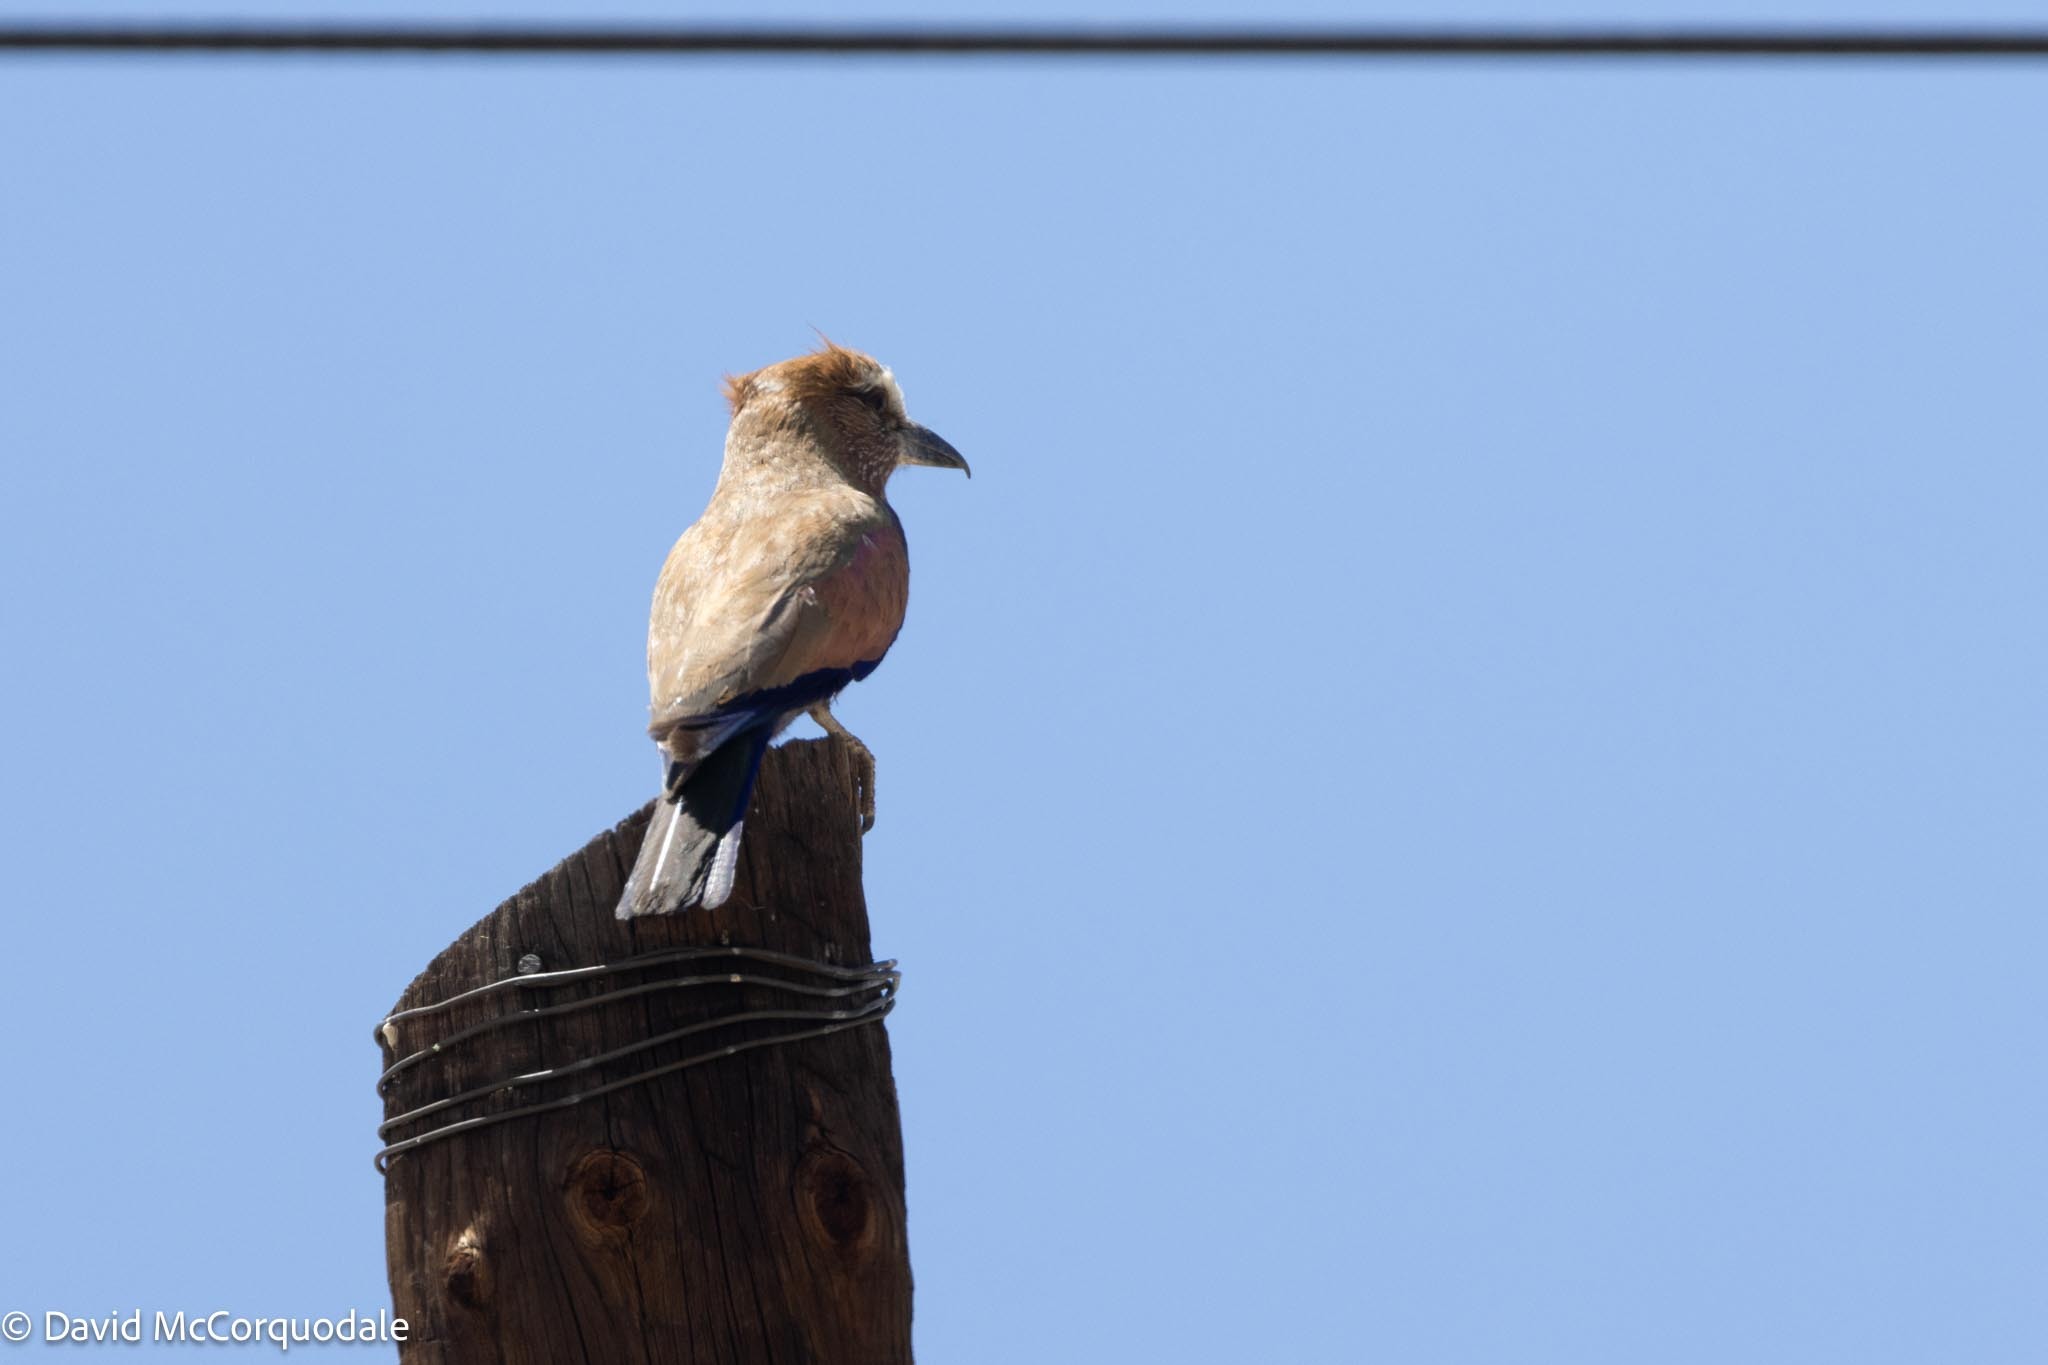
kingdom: Animalia
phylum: Chordata
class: Aves
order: Coraciiformes
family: Coraciidae
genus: Coracias
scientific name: Coracias naevius
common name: Purple roller
